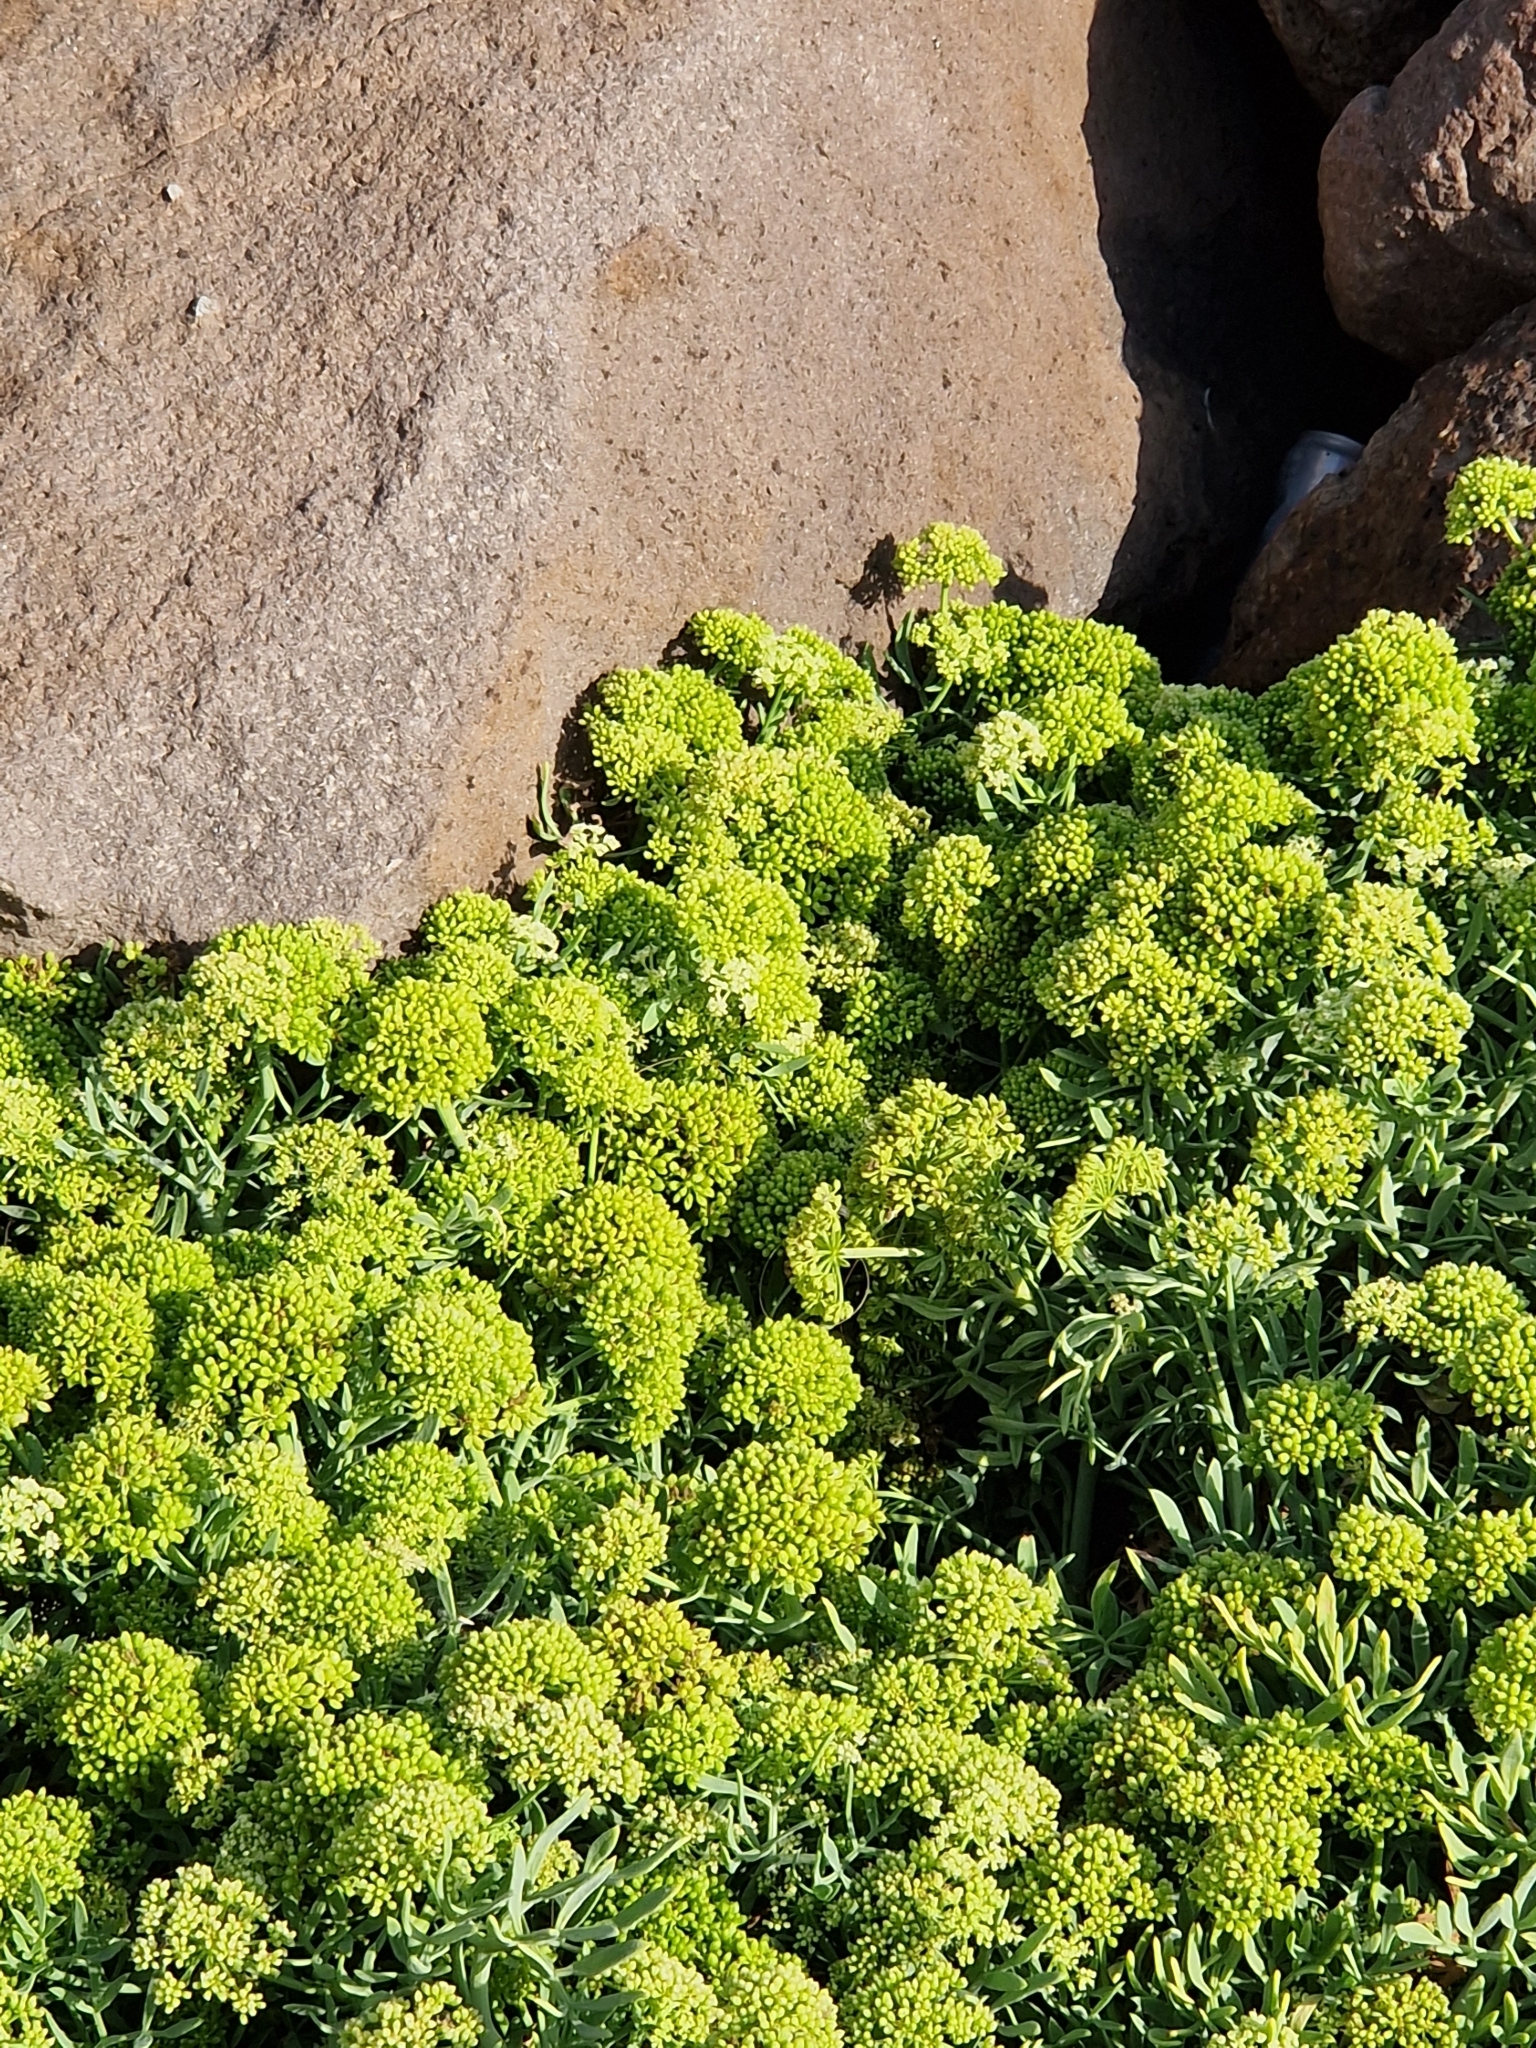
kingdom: Plantae
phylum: Tracheophyta
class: Magnoliopsida
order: Apiales
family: Apiaceae
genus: Crithmum
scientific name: Crithmum maritimum
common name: Rock samphire
